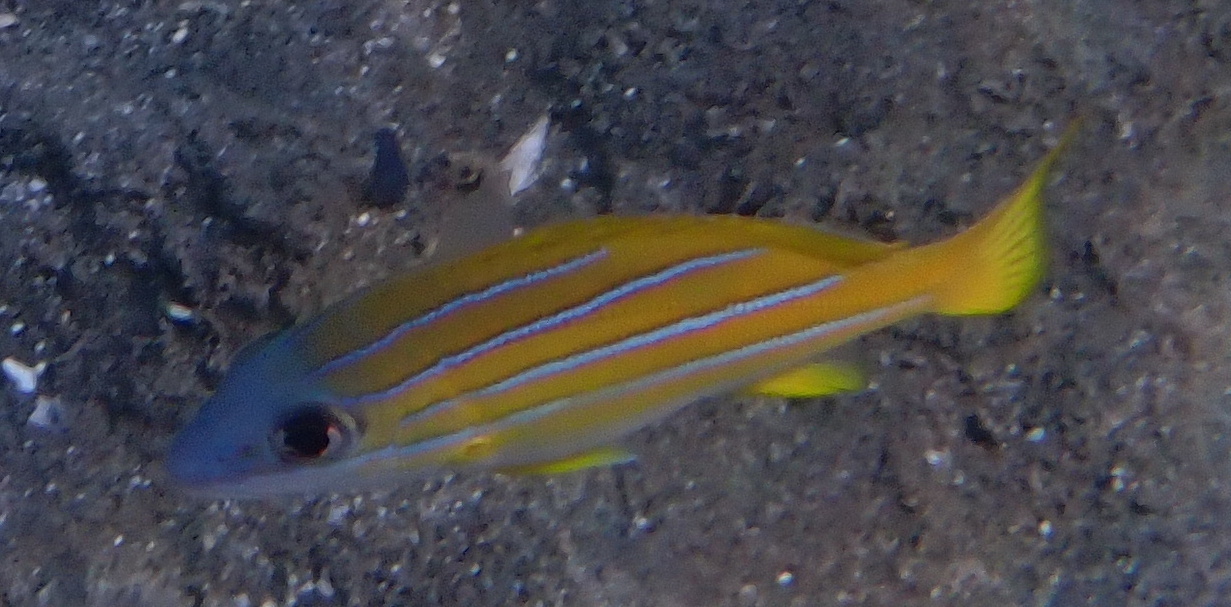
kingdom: Animalia
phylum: Chordata
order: Perciformes
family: Lutjanidae
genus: Lutjanus
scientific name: Lutjanus kasmira
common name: Common bluestripe snapper
